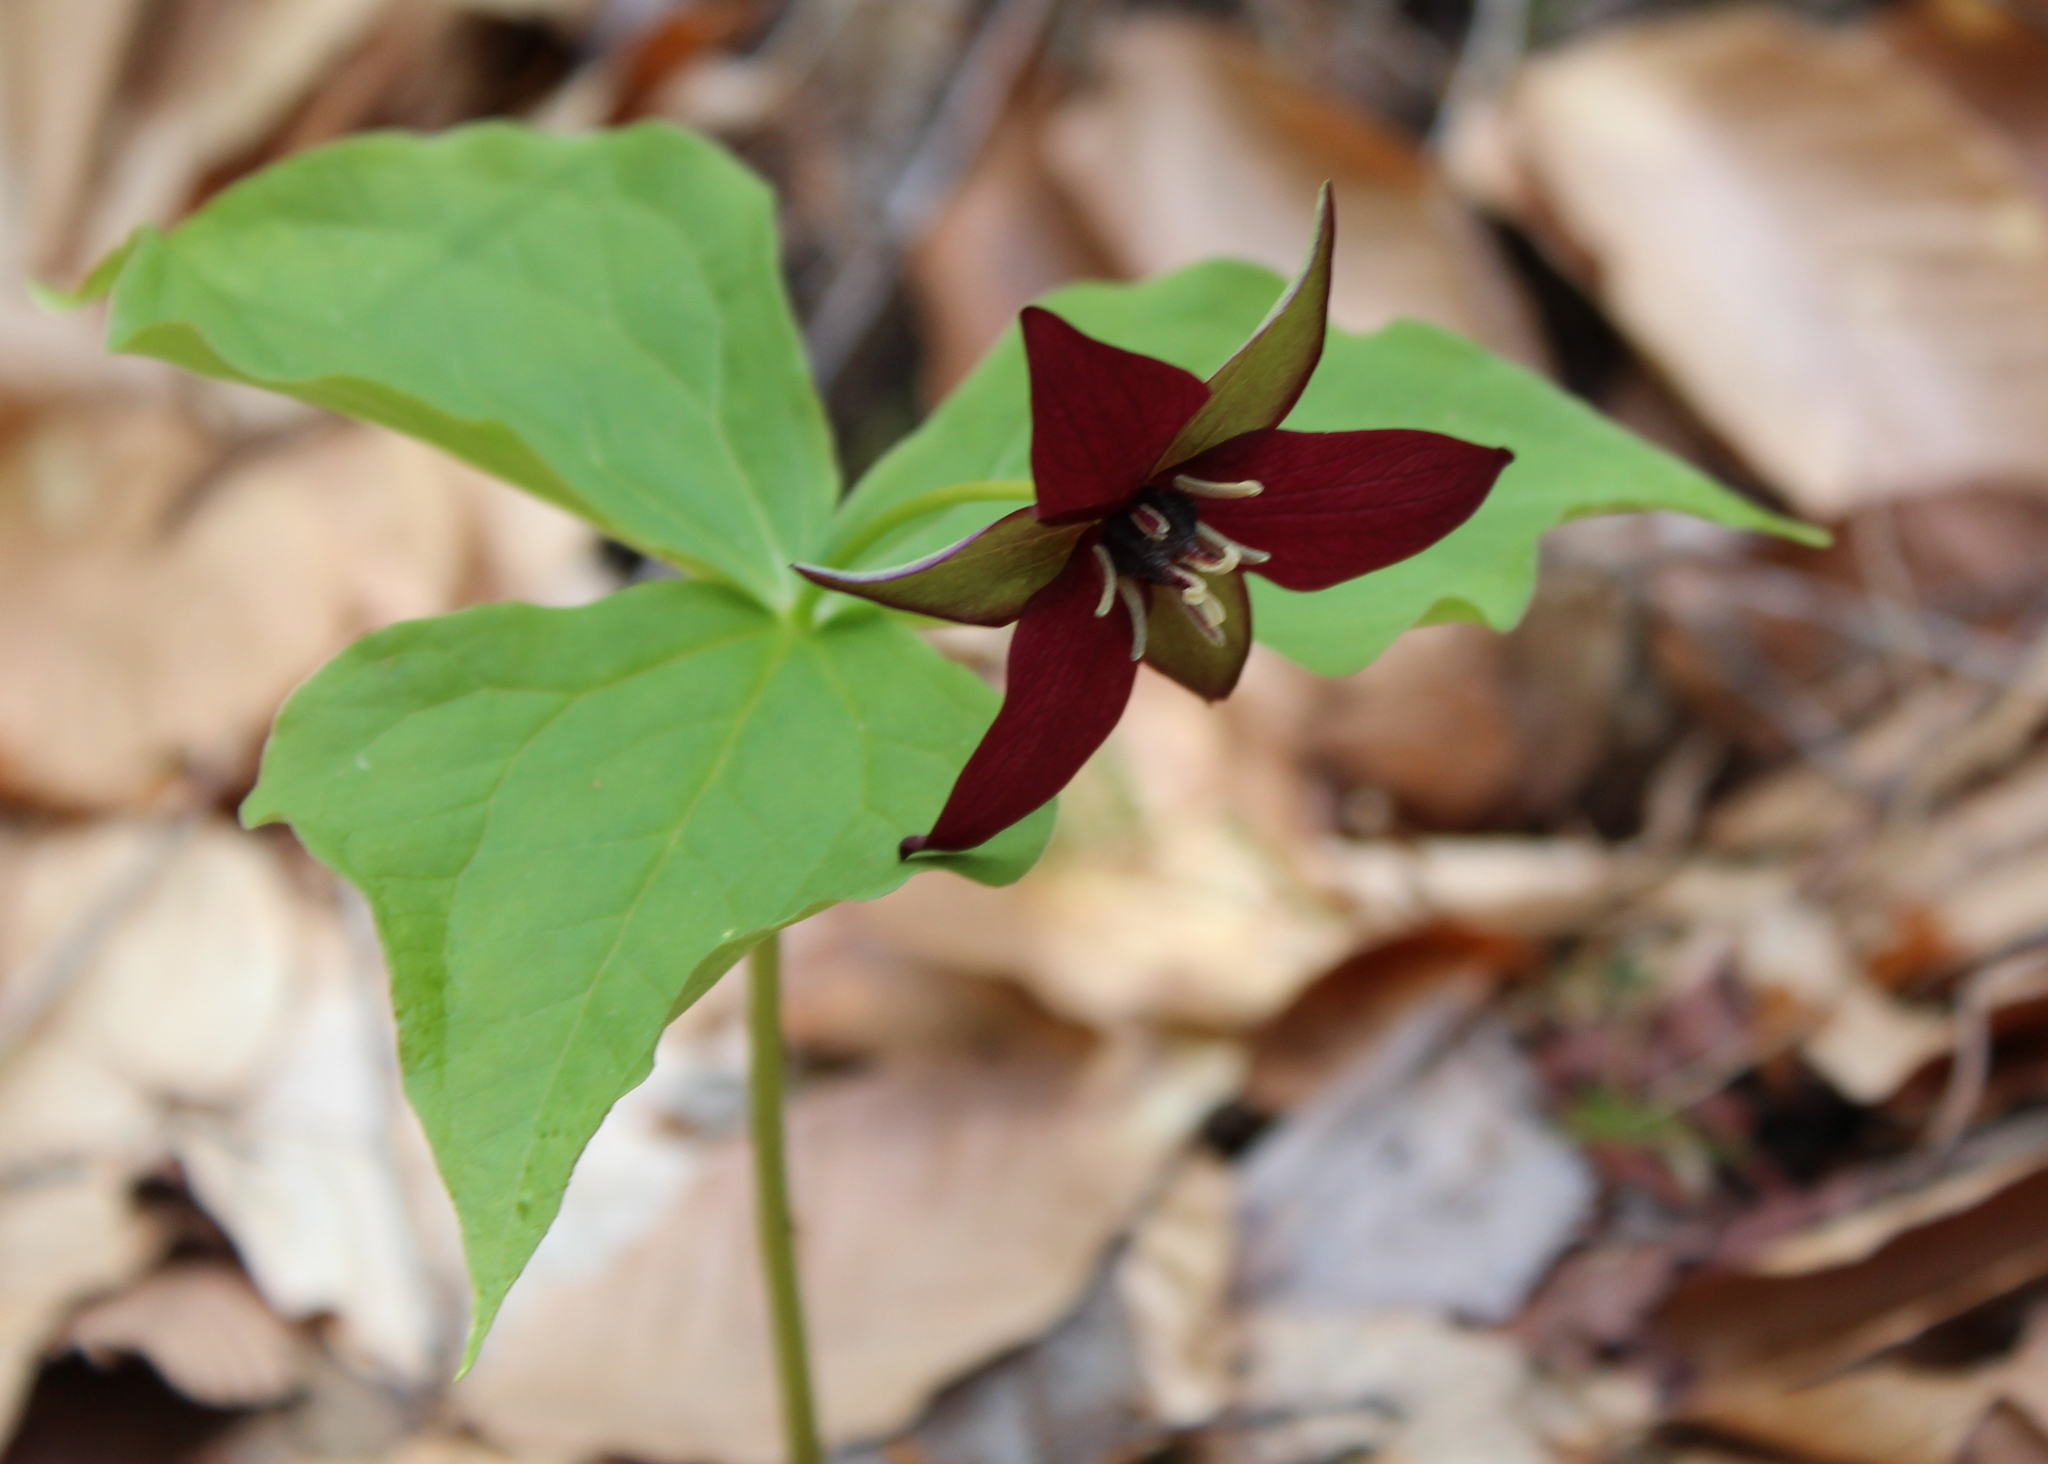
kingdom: Plantae
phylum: Tracheophyta
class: Liliopsida
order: Liliales
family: Melanthiaceae
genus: Trillium
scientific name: Trillium erectum
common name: Purple trillium
